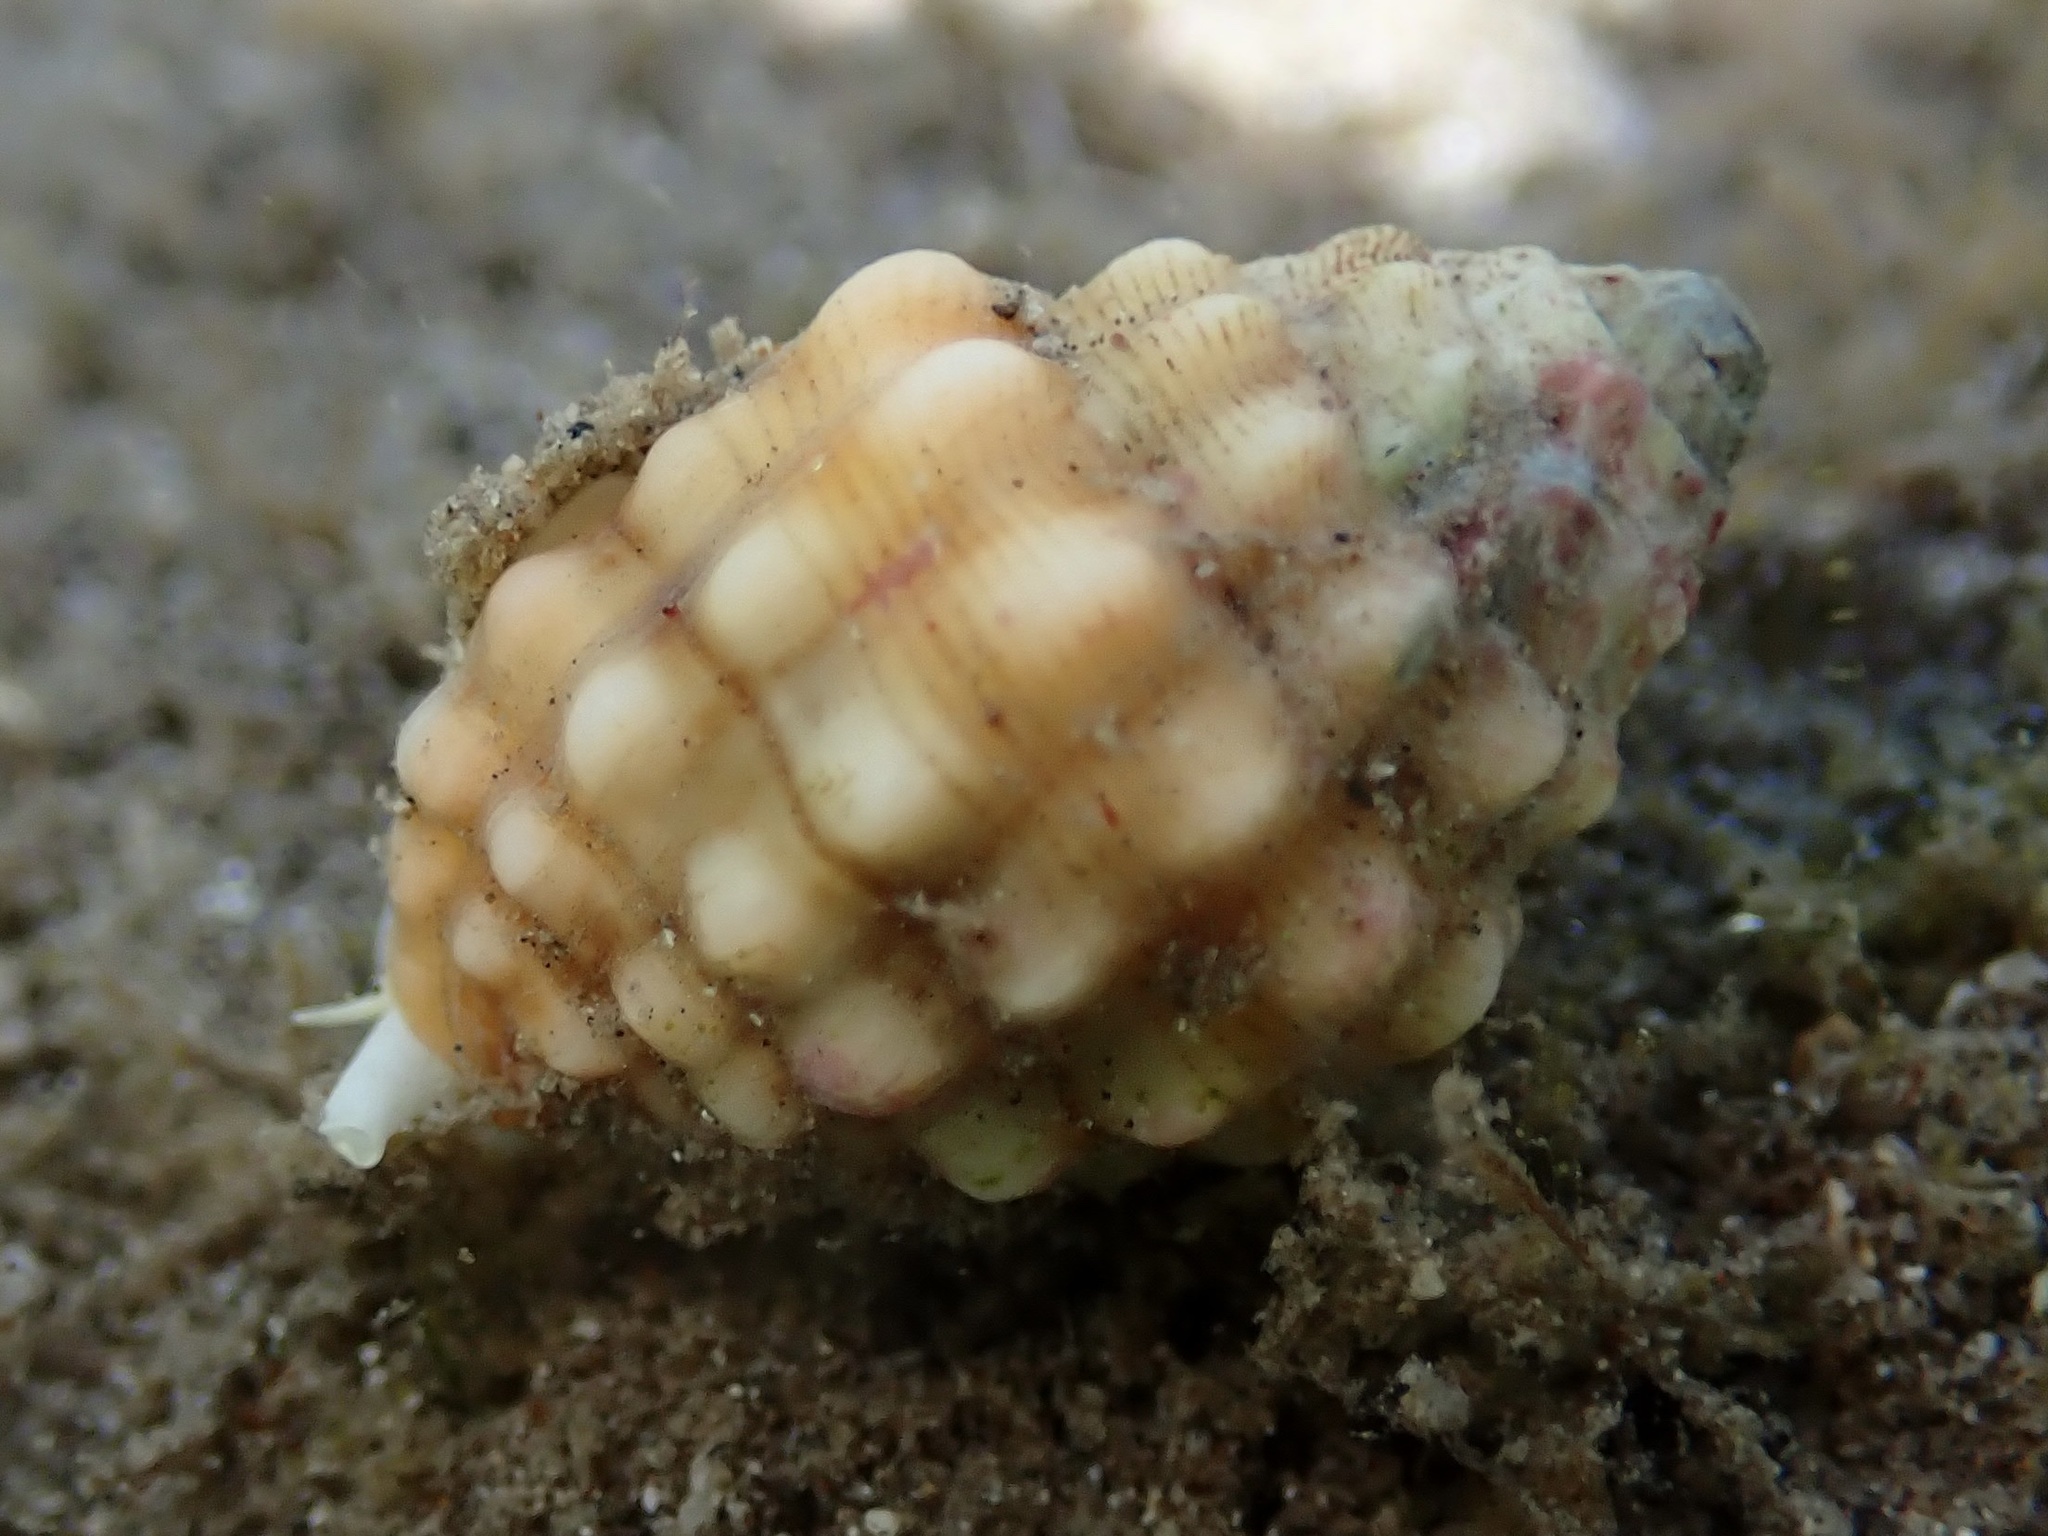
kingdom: Animalia
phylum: Mollusca
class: Gastropoda
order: Neogastropoda
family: Costellariidae
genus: Vexillum
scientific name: Vexillum cancellarioides
